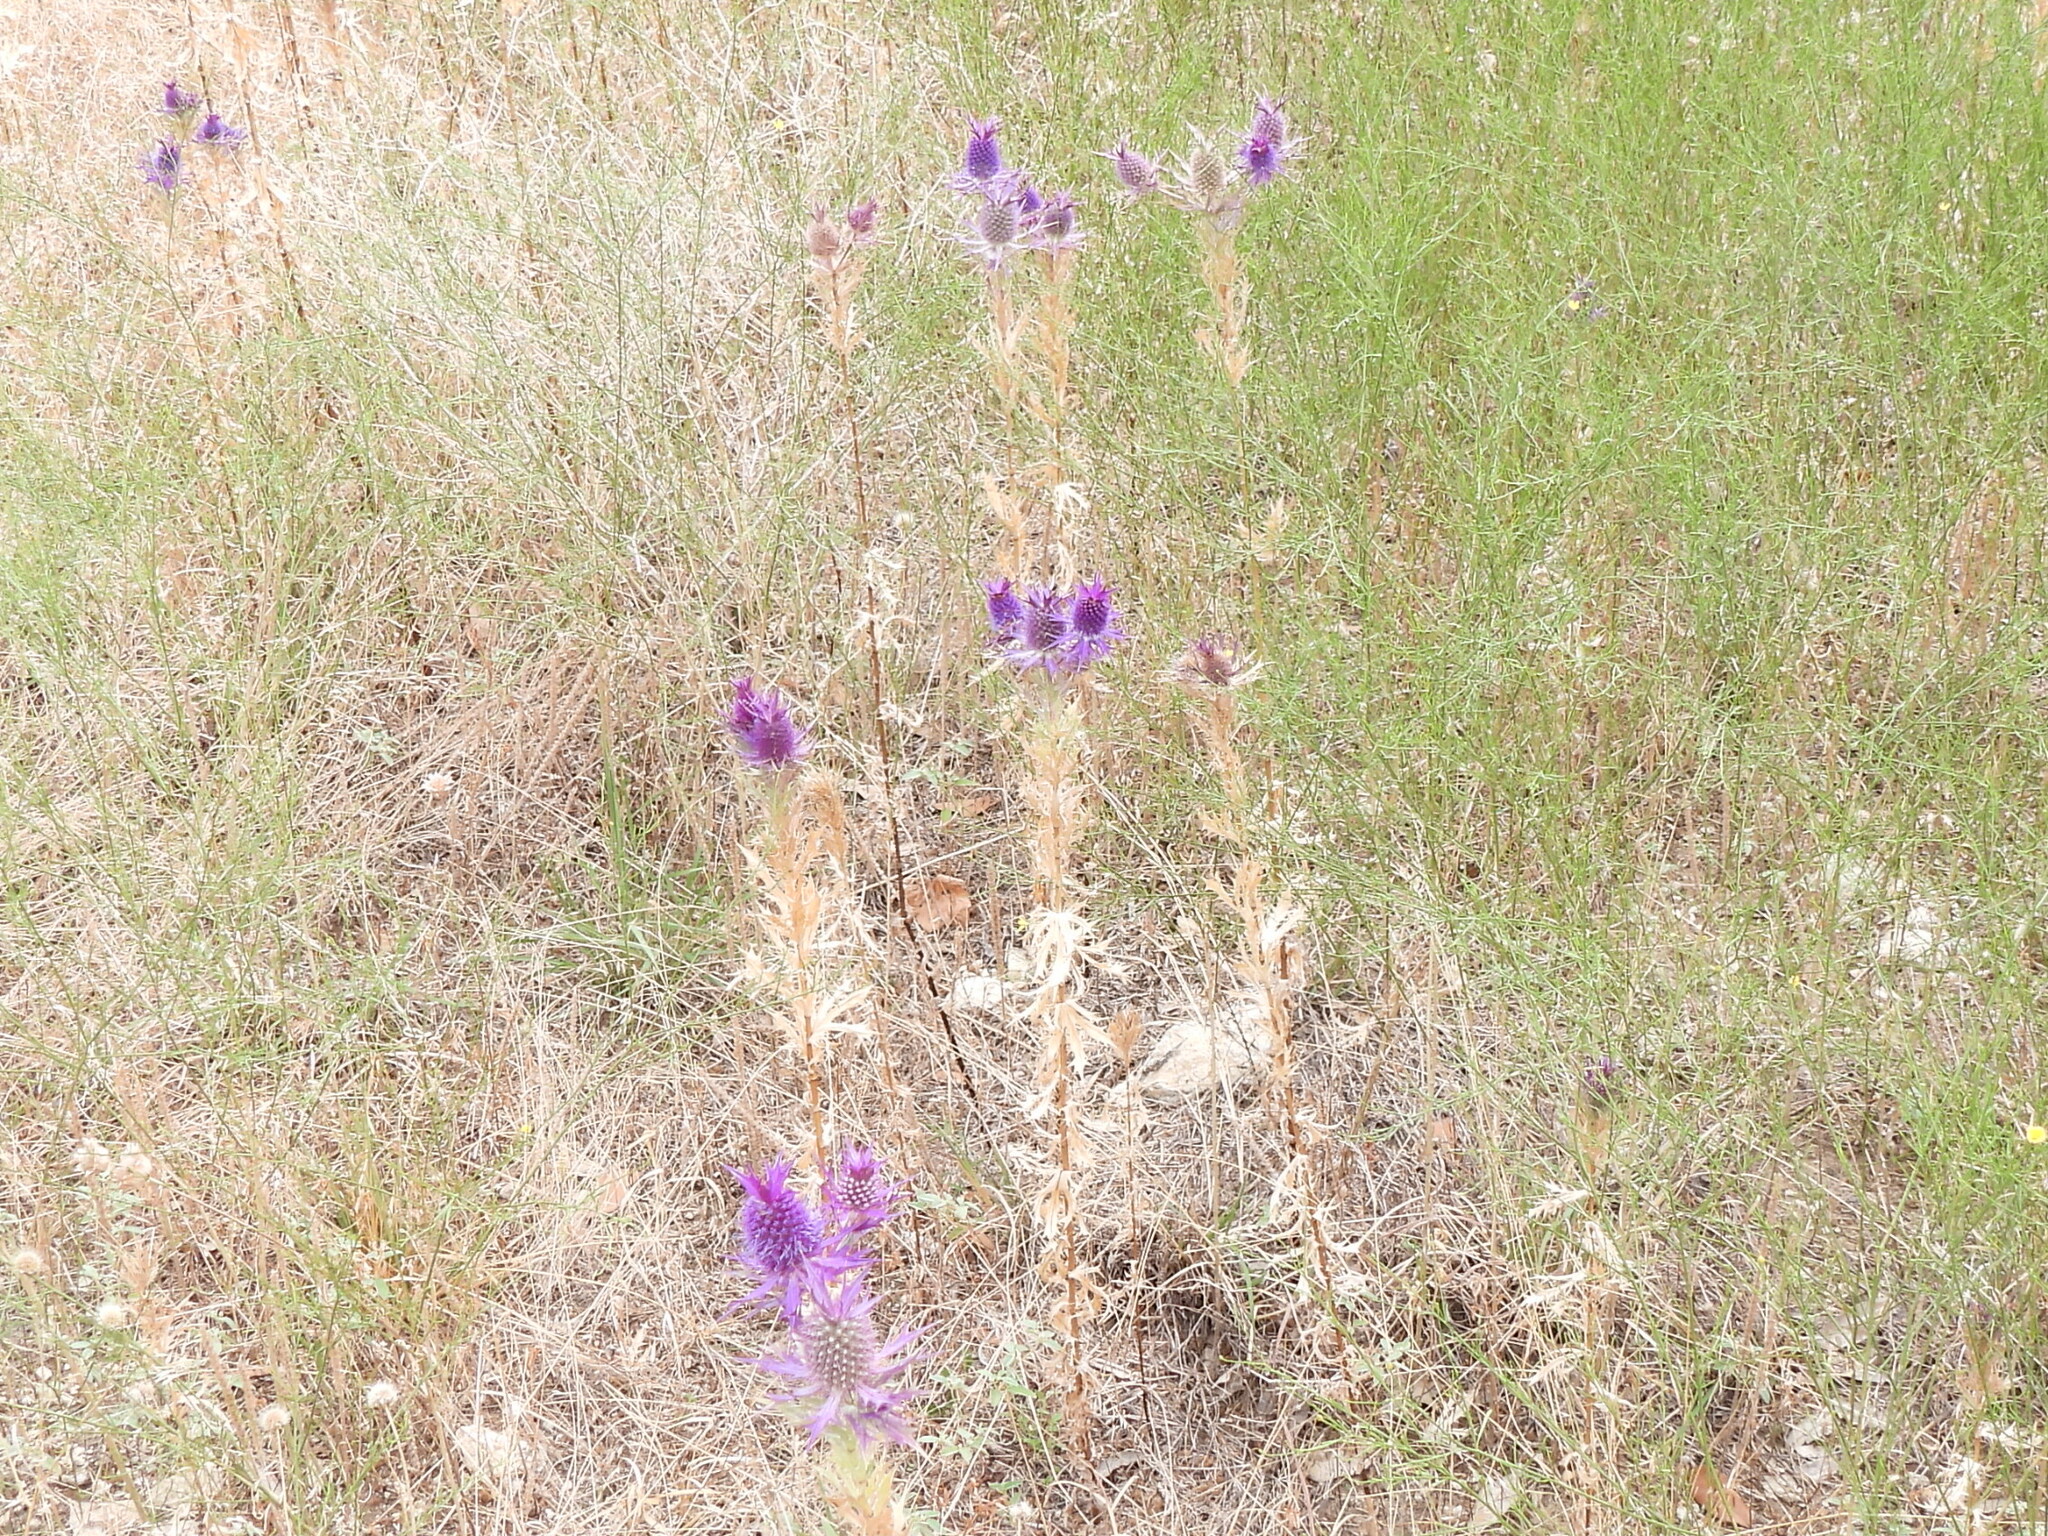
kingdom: Plantae
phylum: Tracheophyta
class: Magnoliopsida
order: Apiales
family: Apiaceae
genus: Eryngium
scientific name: Eryngium leavenworthii
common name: Leavenworth's eryngo
